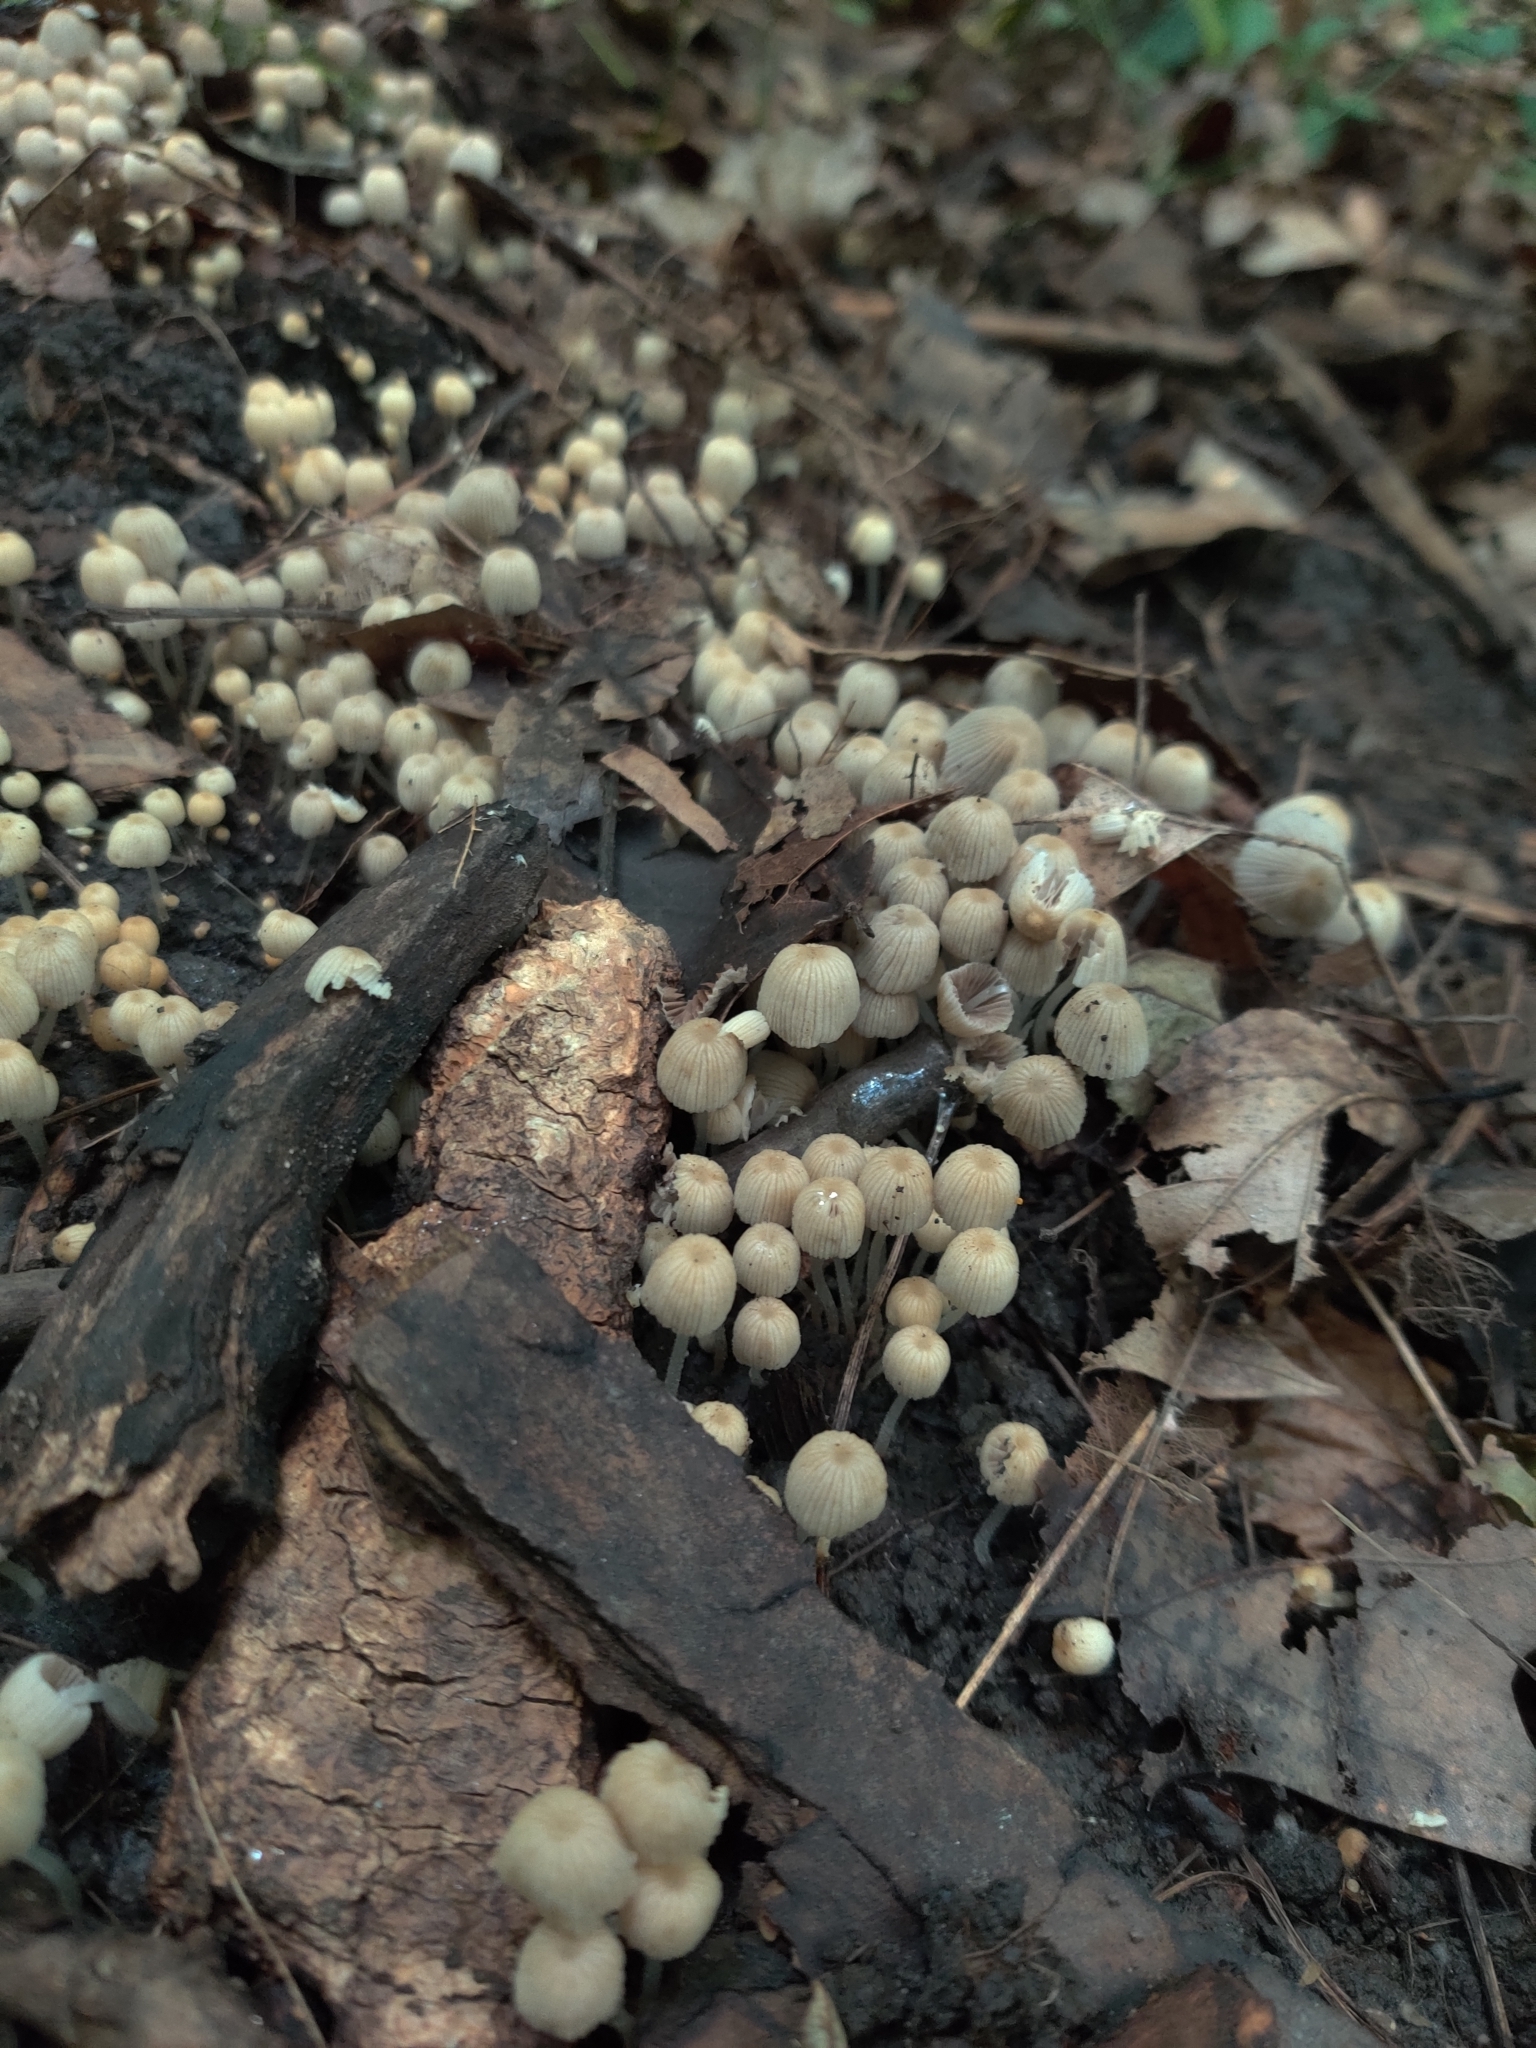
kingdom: Fungi
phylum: Basidiomycota
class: Agaricomycetes
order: Agaricales
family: Psathyrellaceae
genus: Coprinellus
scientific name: Coprinellus disseminatus
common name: Fairies' bonnets
